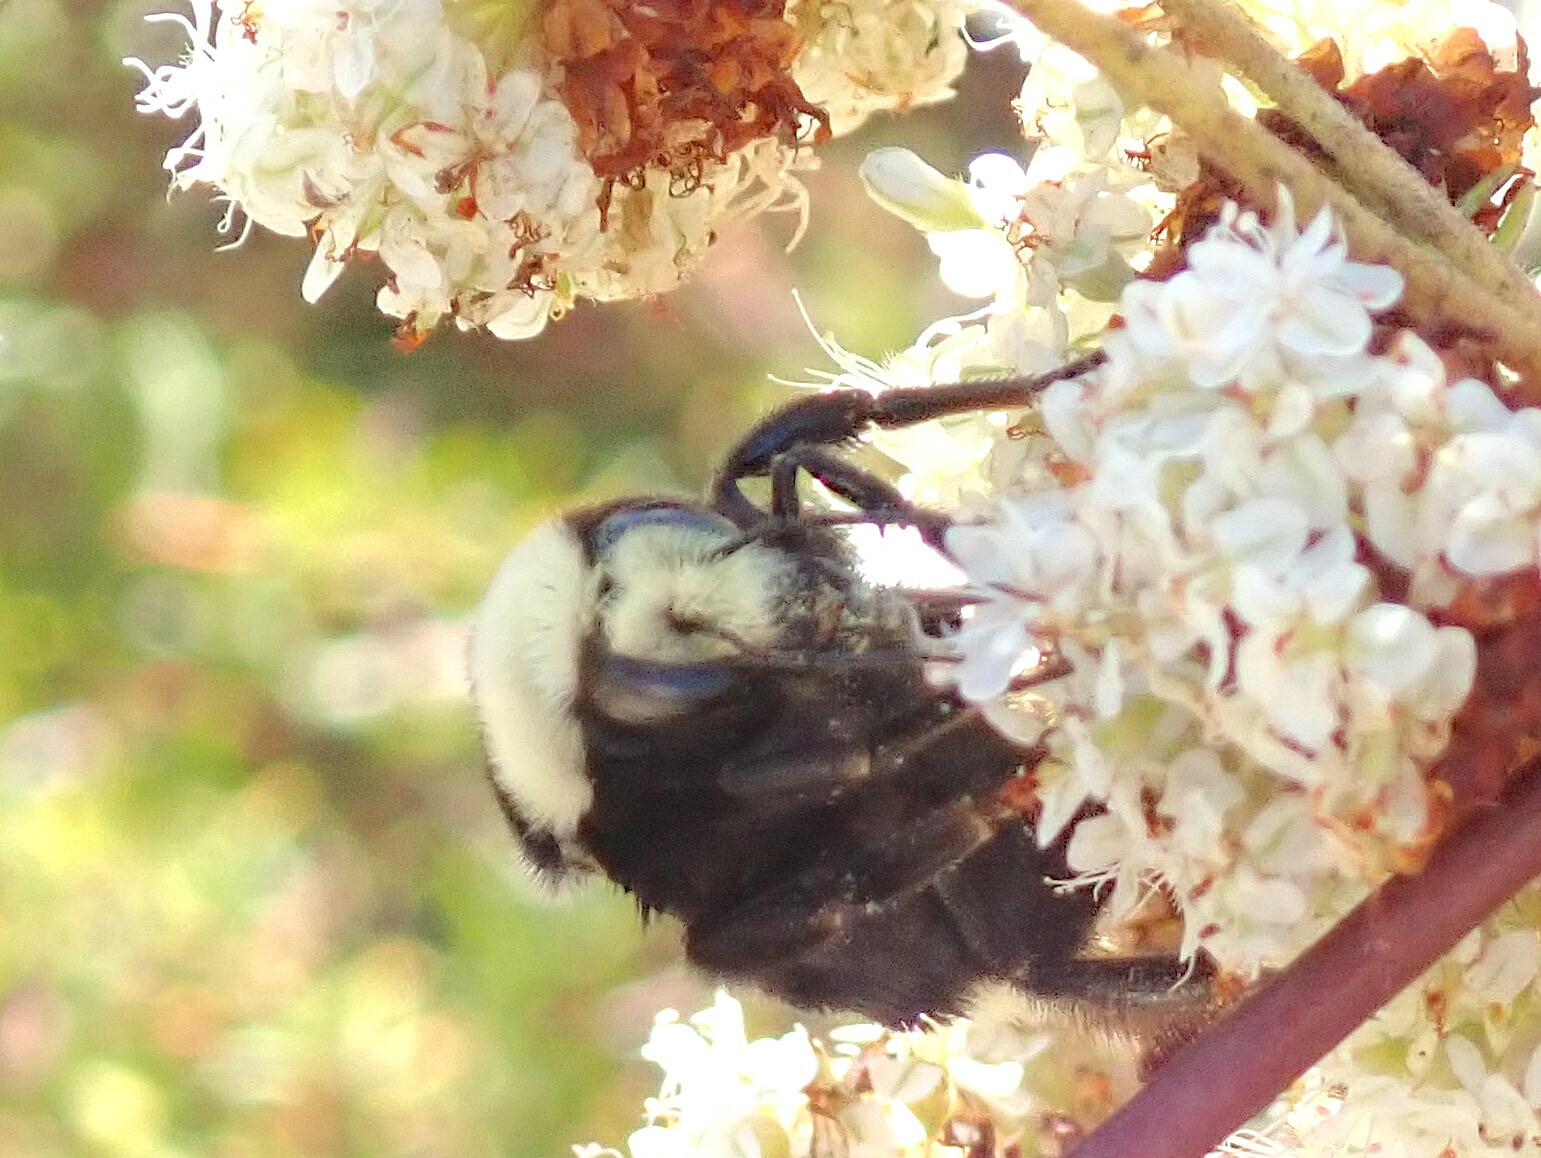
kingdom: Animalia
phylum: Arthropoda
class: Insecta
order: Hymenoptera
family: Apidae
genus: Bombus
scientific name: Bombus vosnesenskii
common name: Vosnesensky bumble bee
